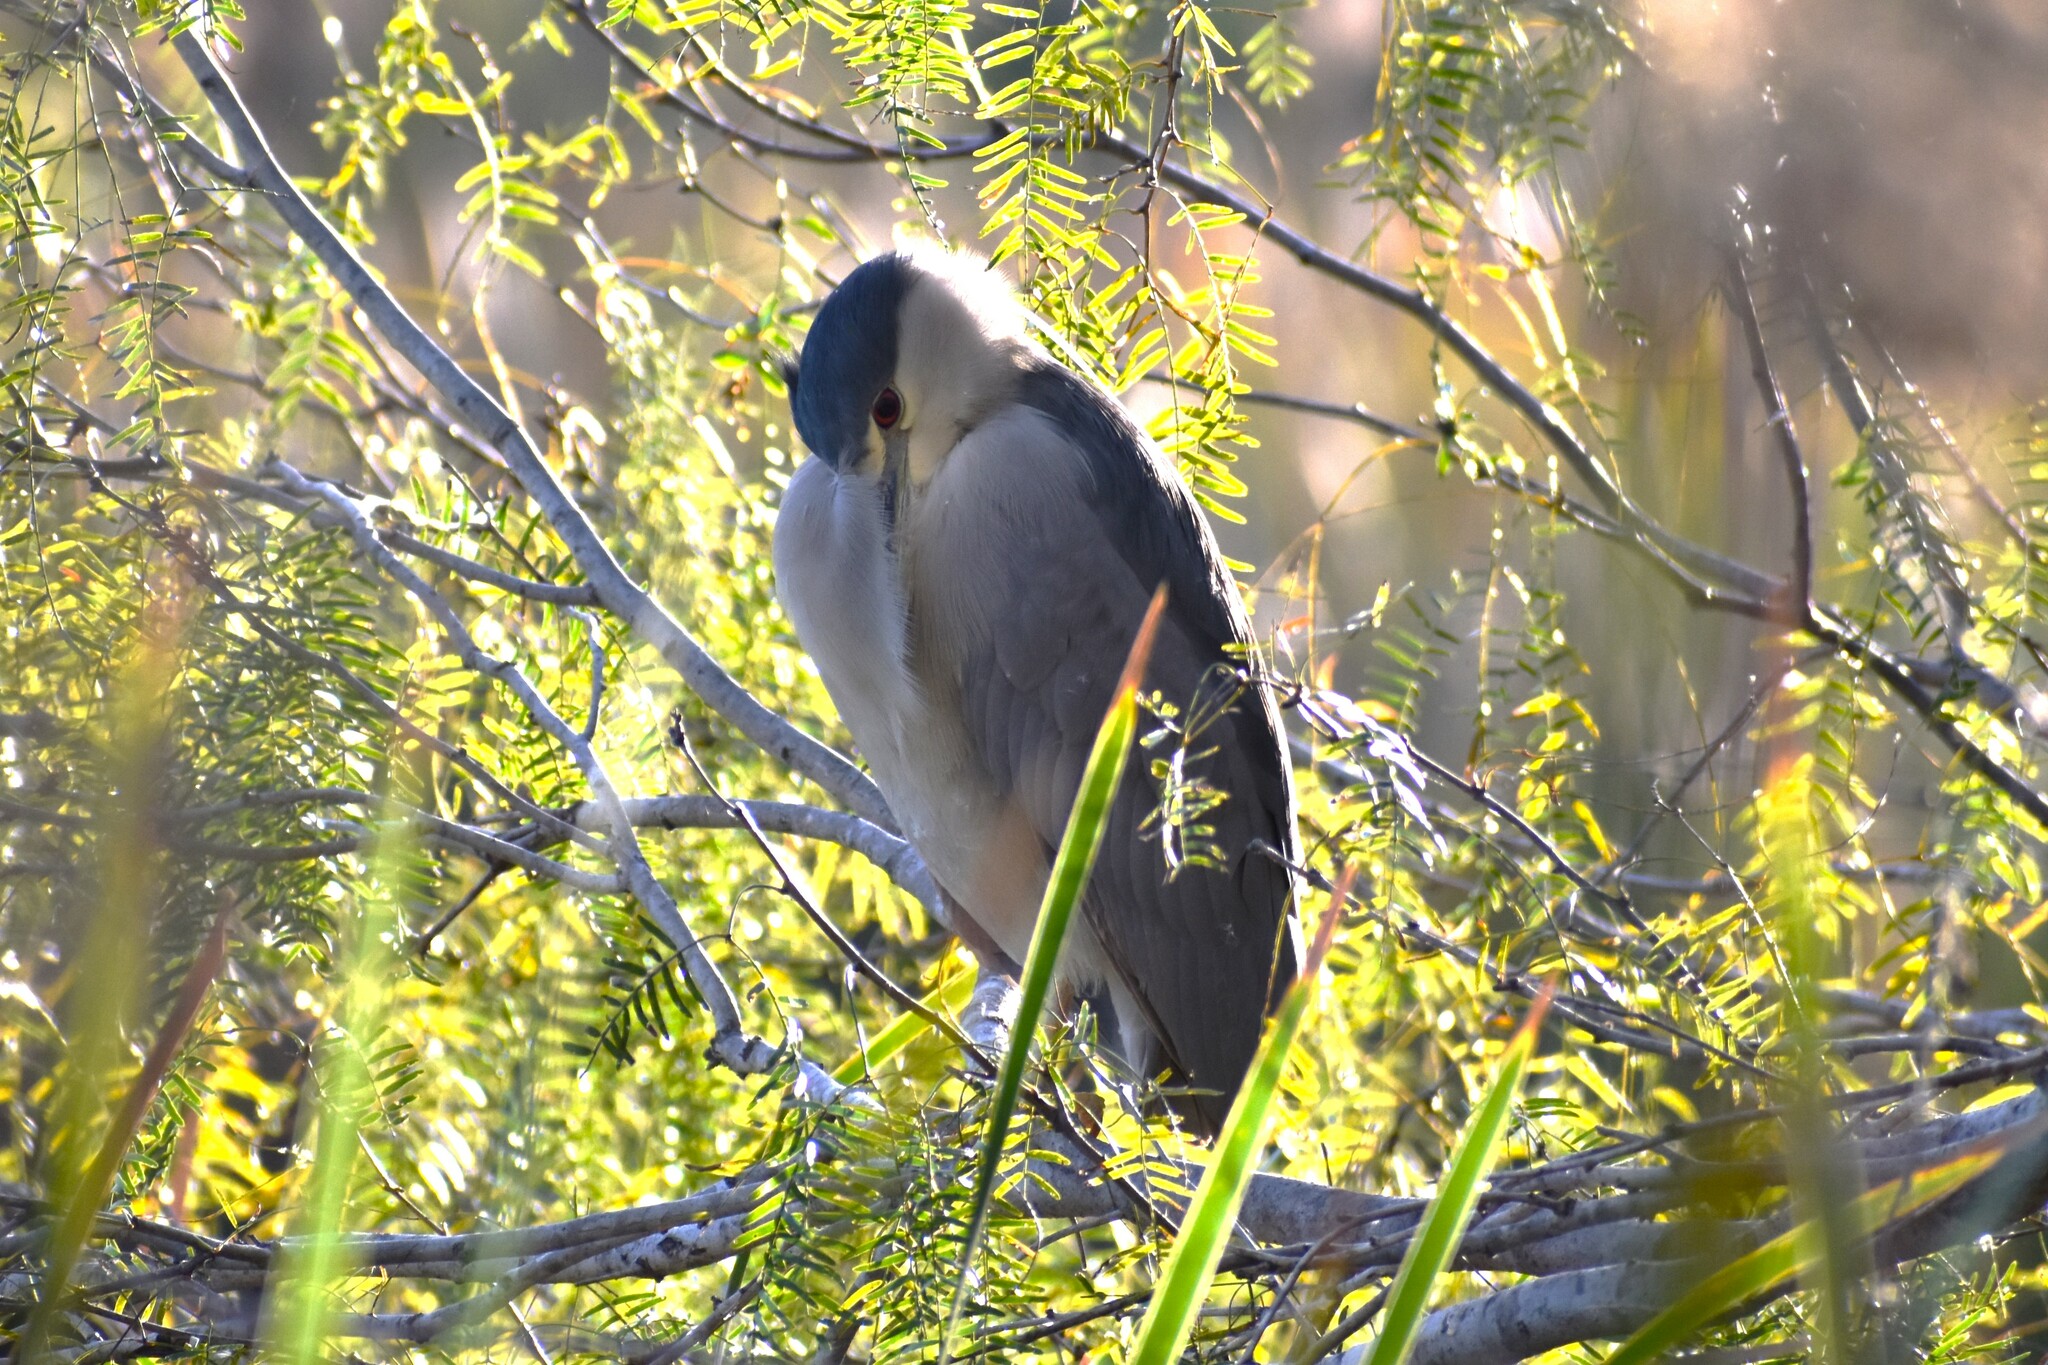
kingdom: Animalia
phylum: Chordata
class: Aves
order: Pelecaniformes
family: Ardeidae
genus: Nycticorax
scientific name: Nycticorax nycticorax
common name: Black-crowned night heron
